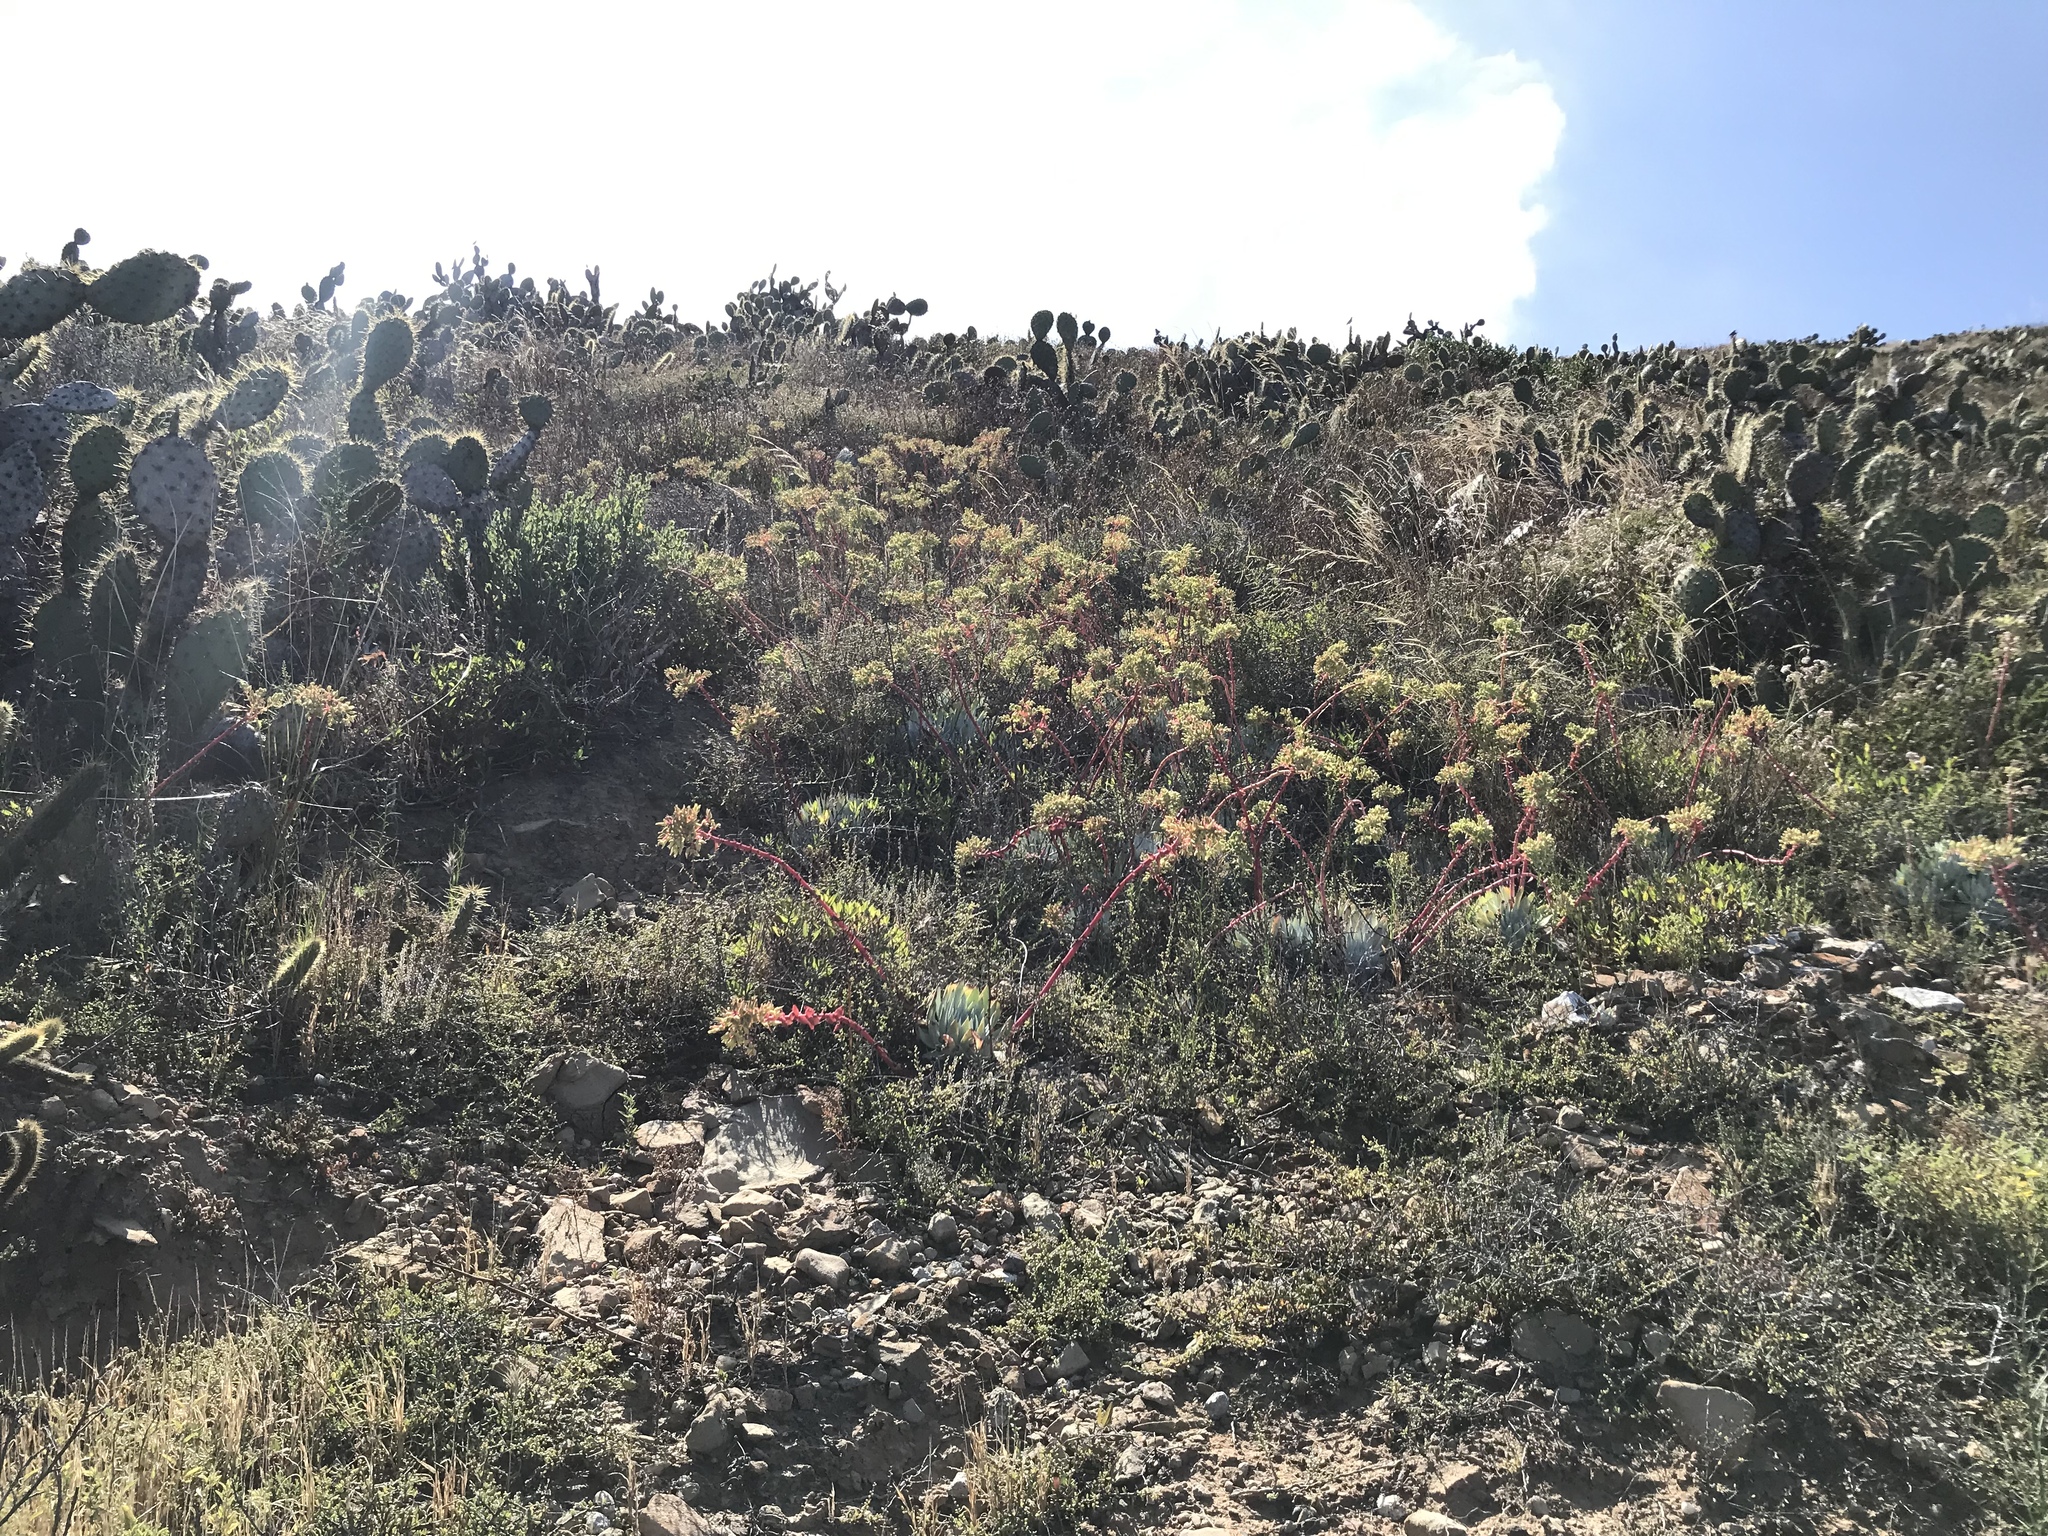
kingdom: Plantae
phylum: Tracheophyta
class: Magnoliopsida
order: Saxifragales
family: Crassulaceae
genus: Dudleya
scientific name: Dudleya candida
